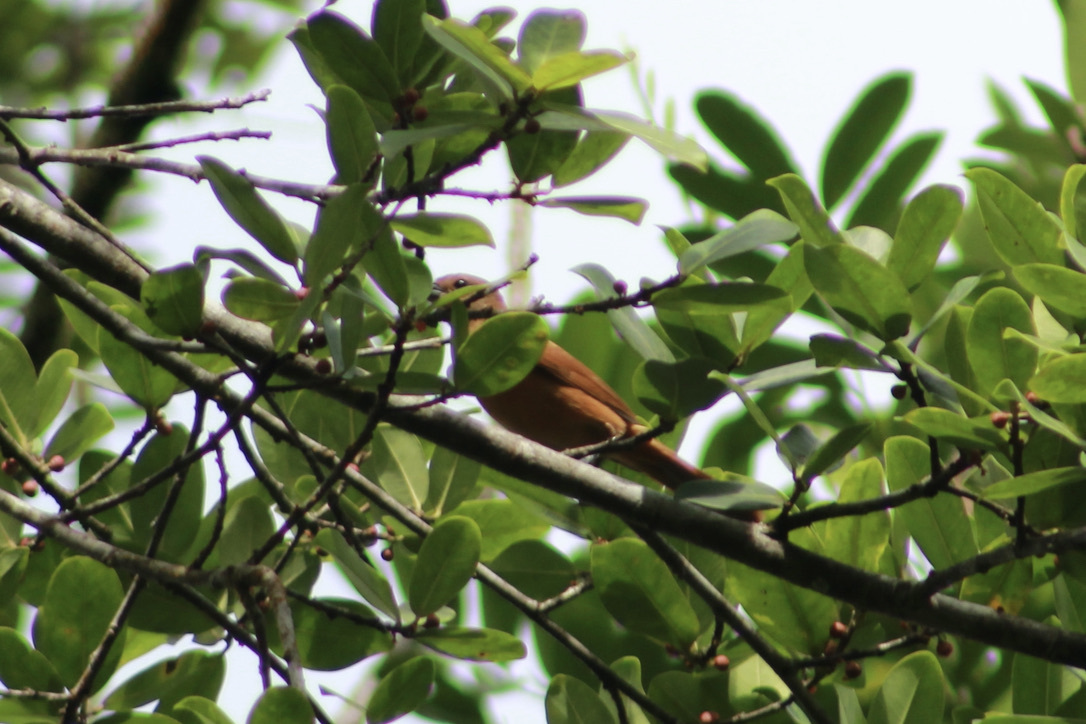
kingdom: Animalia
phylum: Chordata
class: Aves
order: Passeriformes
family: Thraupidae
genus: Tachyphonus
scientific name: Tachyphonus rufus
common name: White-lined tanager
